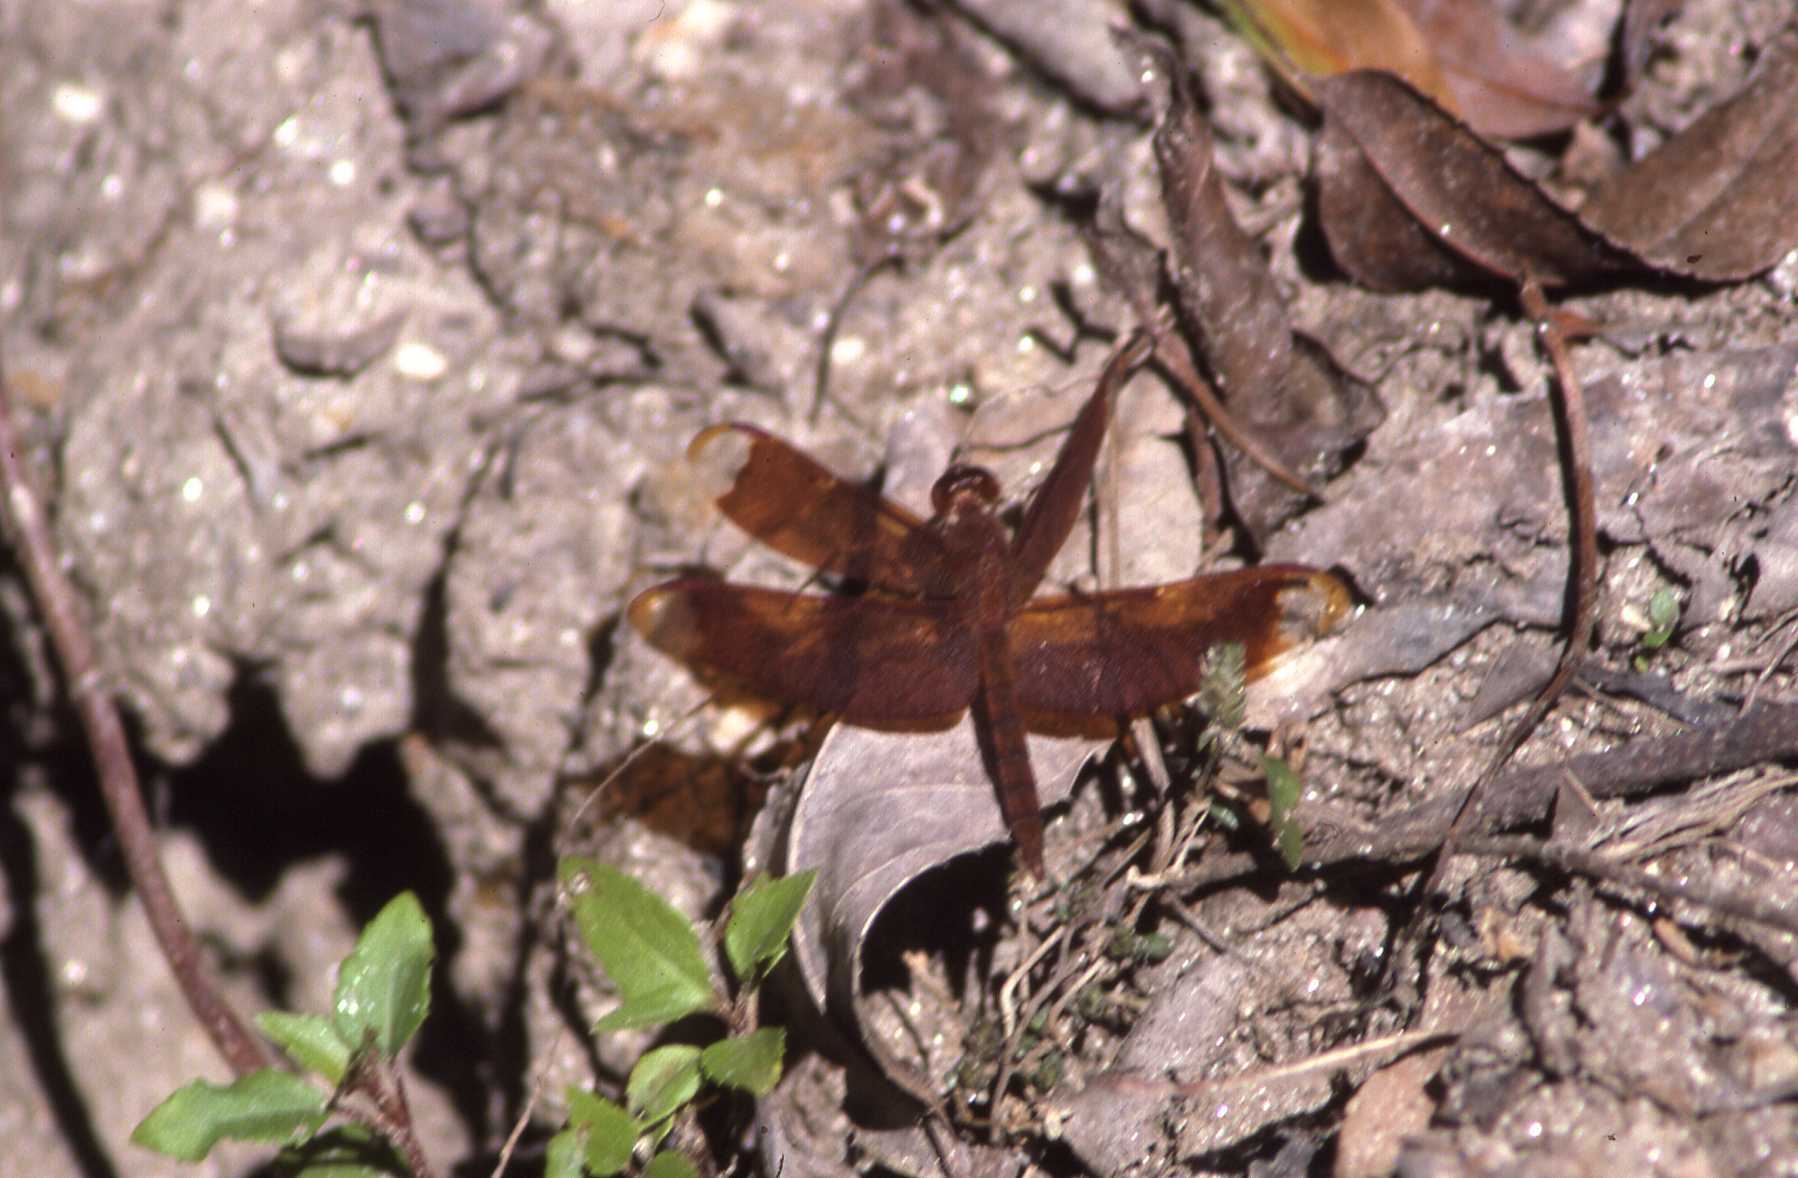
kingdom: Animalia
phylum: Arthropoda
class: Insecta
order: Odonata
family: Libellulidae
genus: Neurothemis
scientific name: Neurothemis fulvia
